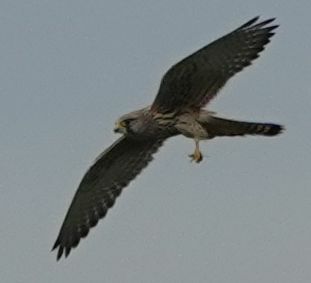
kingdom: Animalia
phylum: Chordata
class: Aves
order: Falconiformes
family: Falconidae
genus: Falco
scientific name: Falco tinnunculus
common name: Common kestrel
